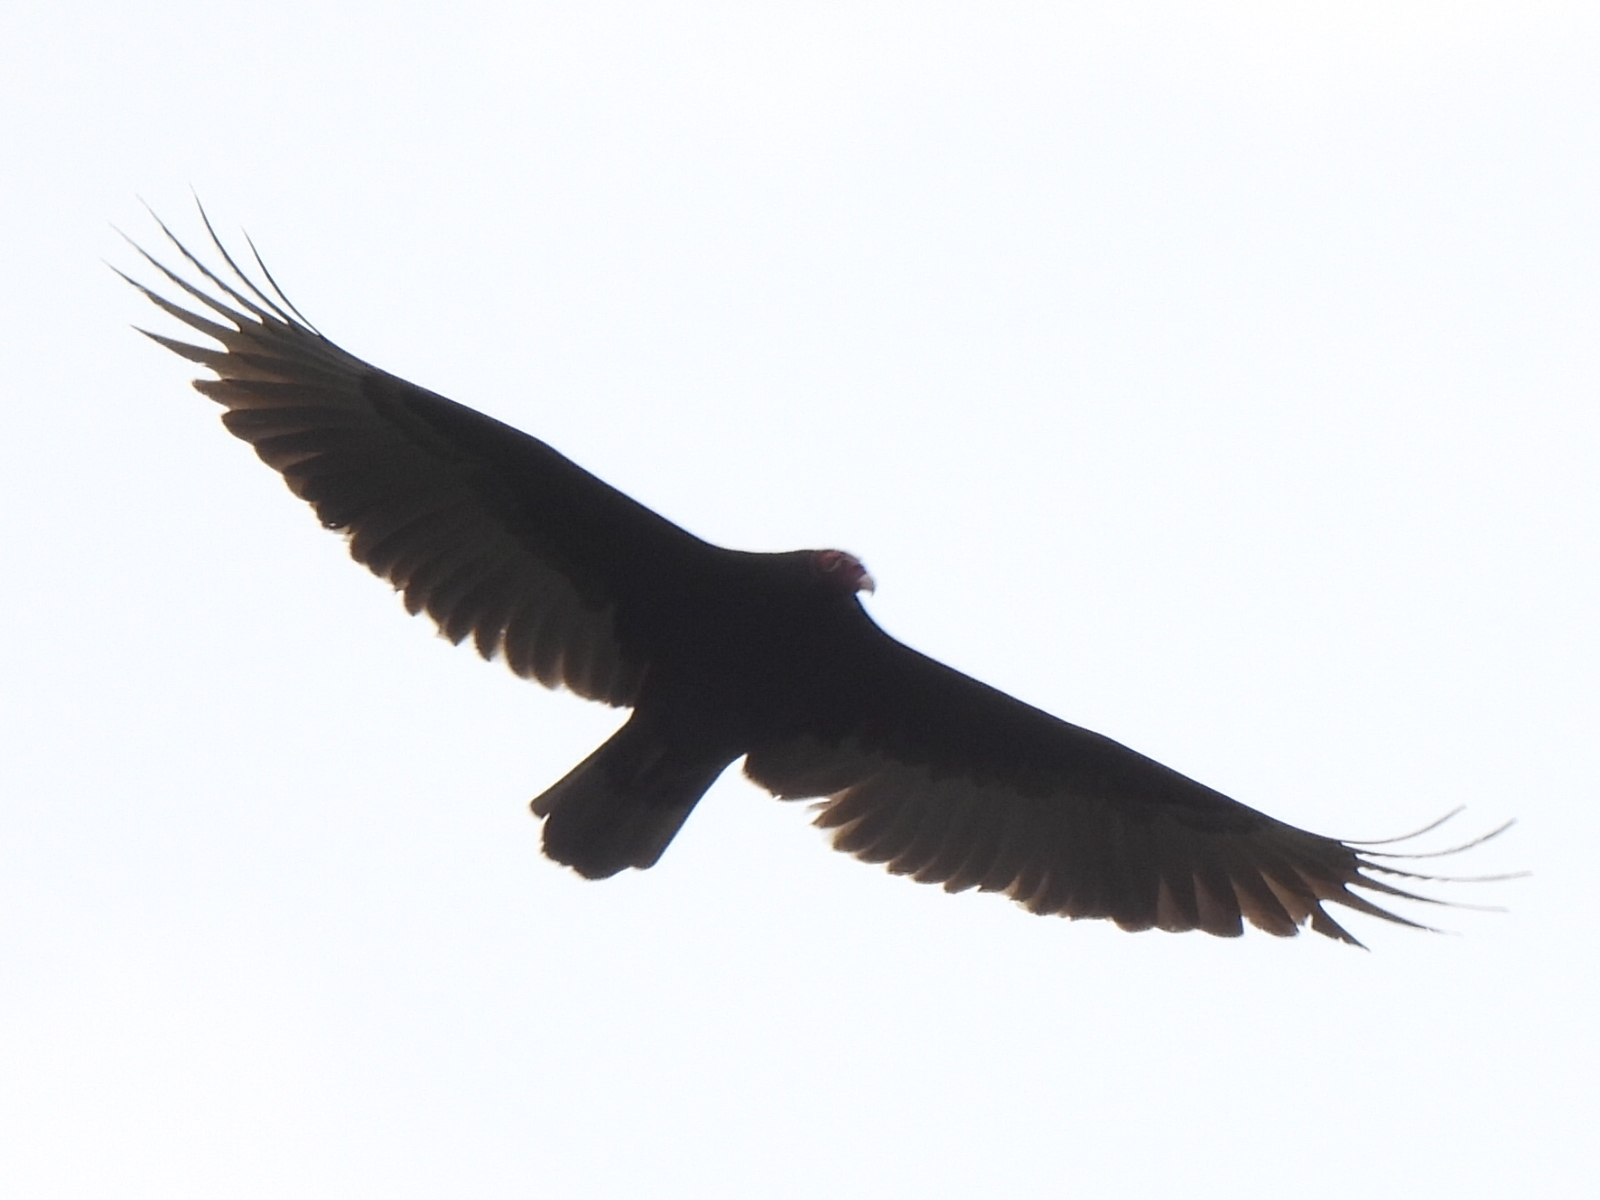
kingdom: Animalia
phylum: Chordata
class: Aves
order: Accipitriformes
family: Cathartidae
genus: Cathartes
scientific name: Cathartes aura
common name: Turkey vulture
